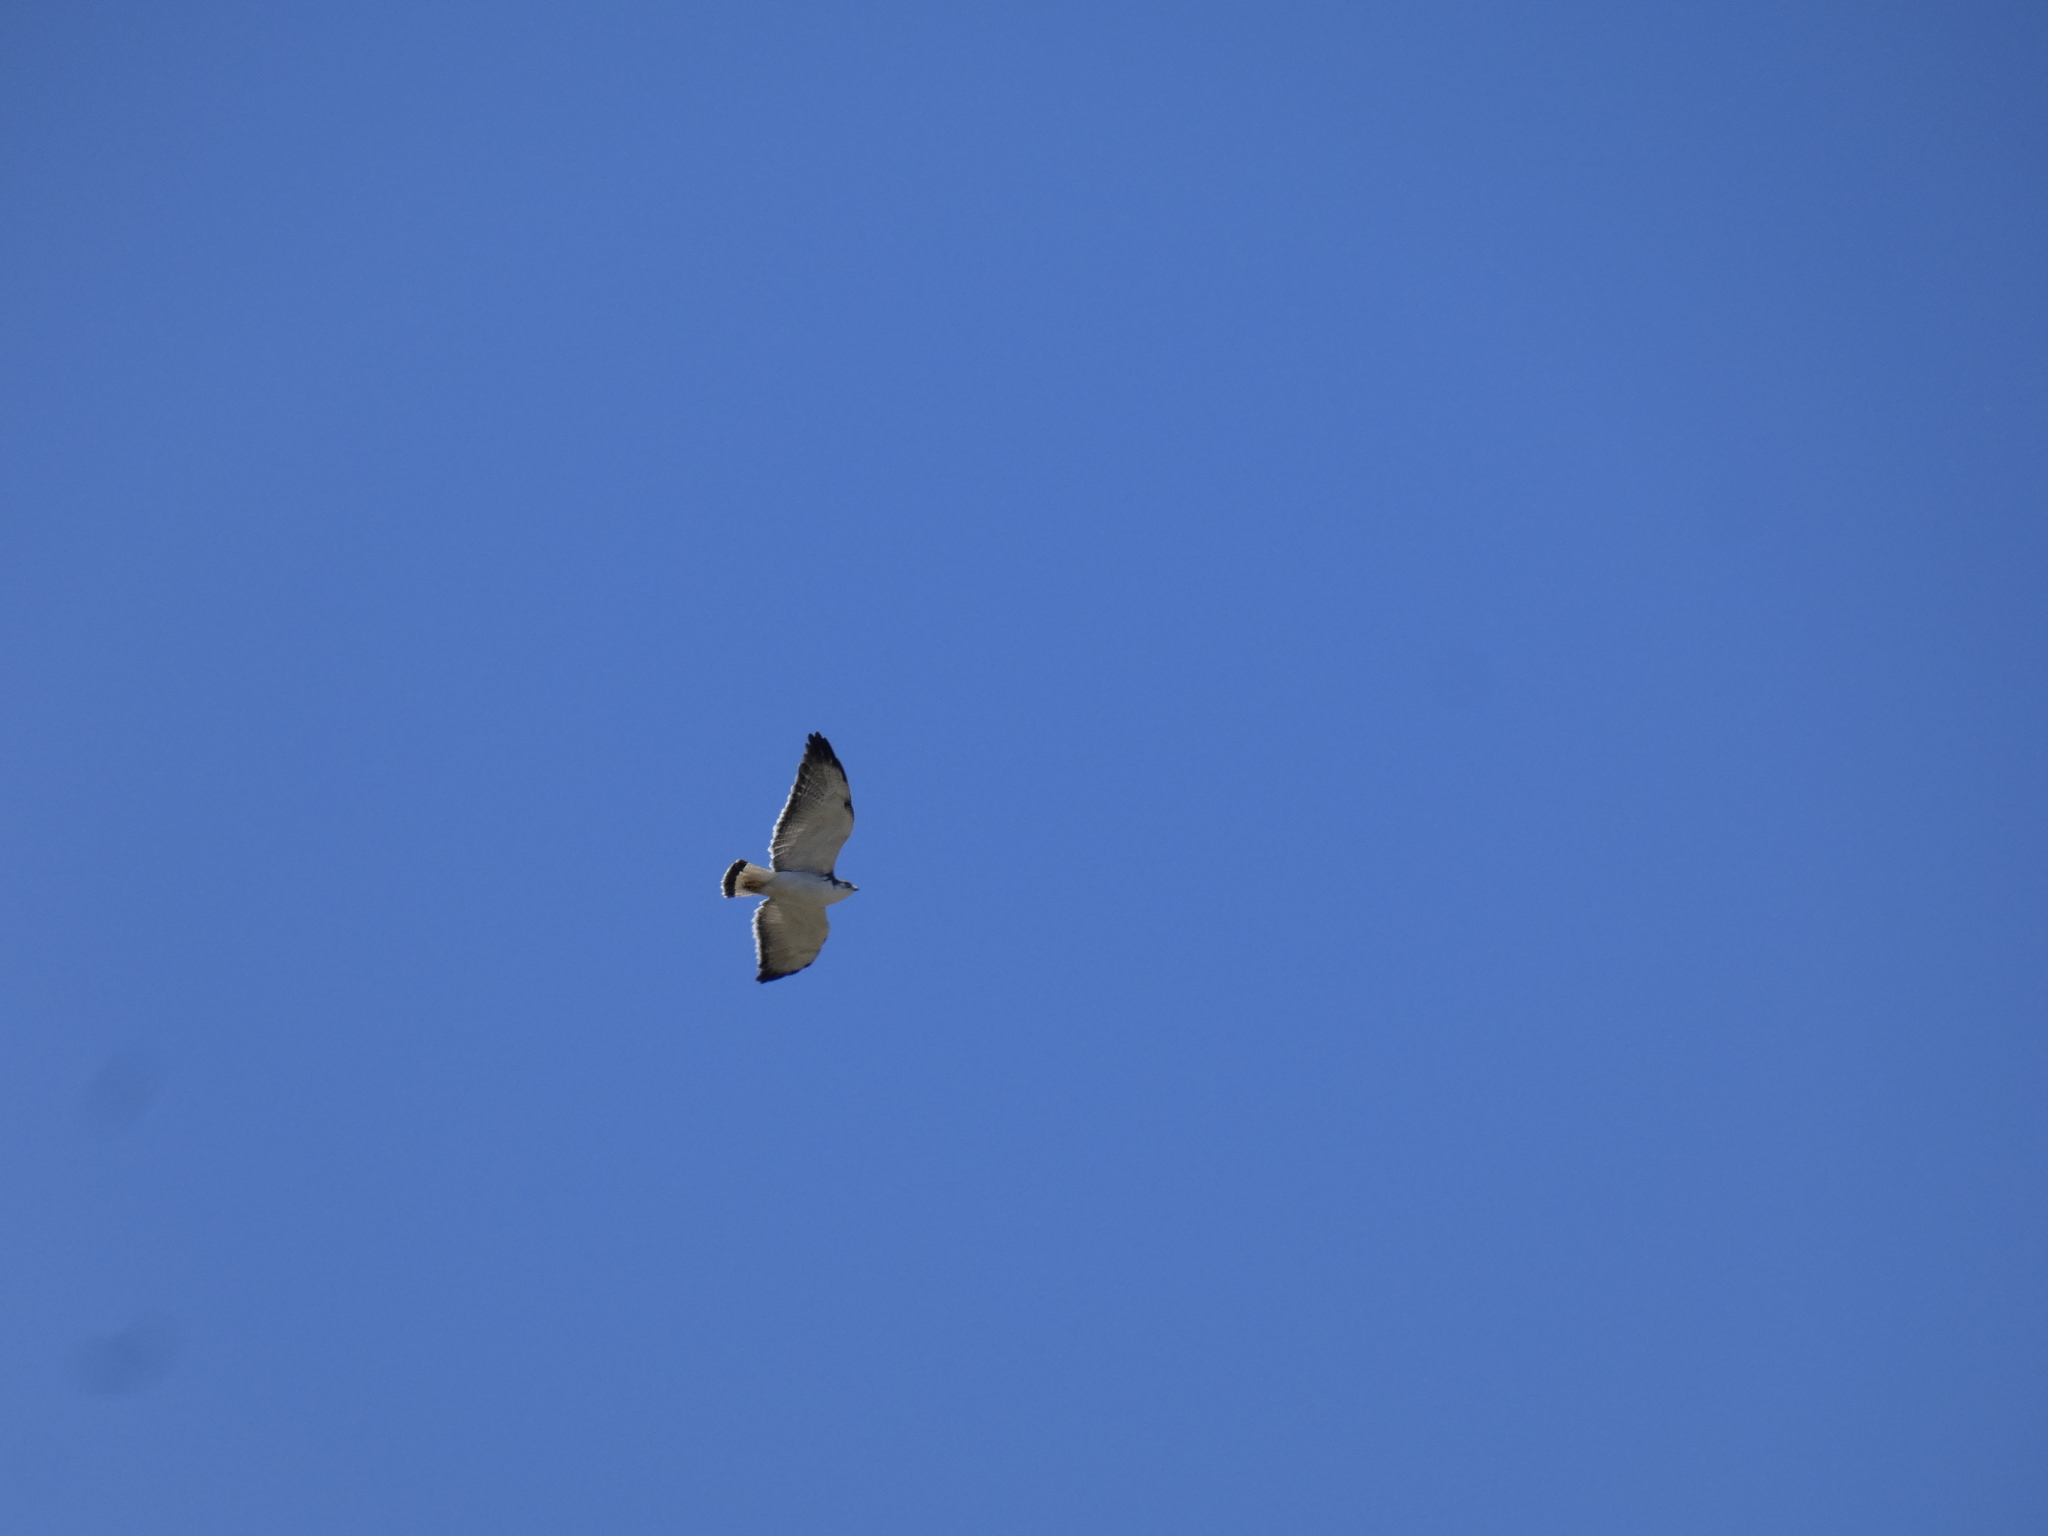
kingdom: Animalia
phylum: Chordata
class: Aves
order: Accipitriformes
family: Accipitridae
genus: Buteo
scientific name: Buteo polyosoma
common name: Variable hawk
